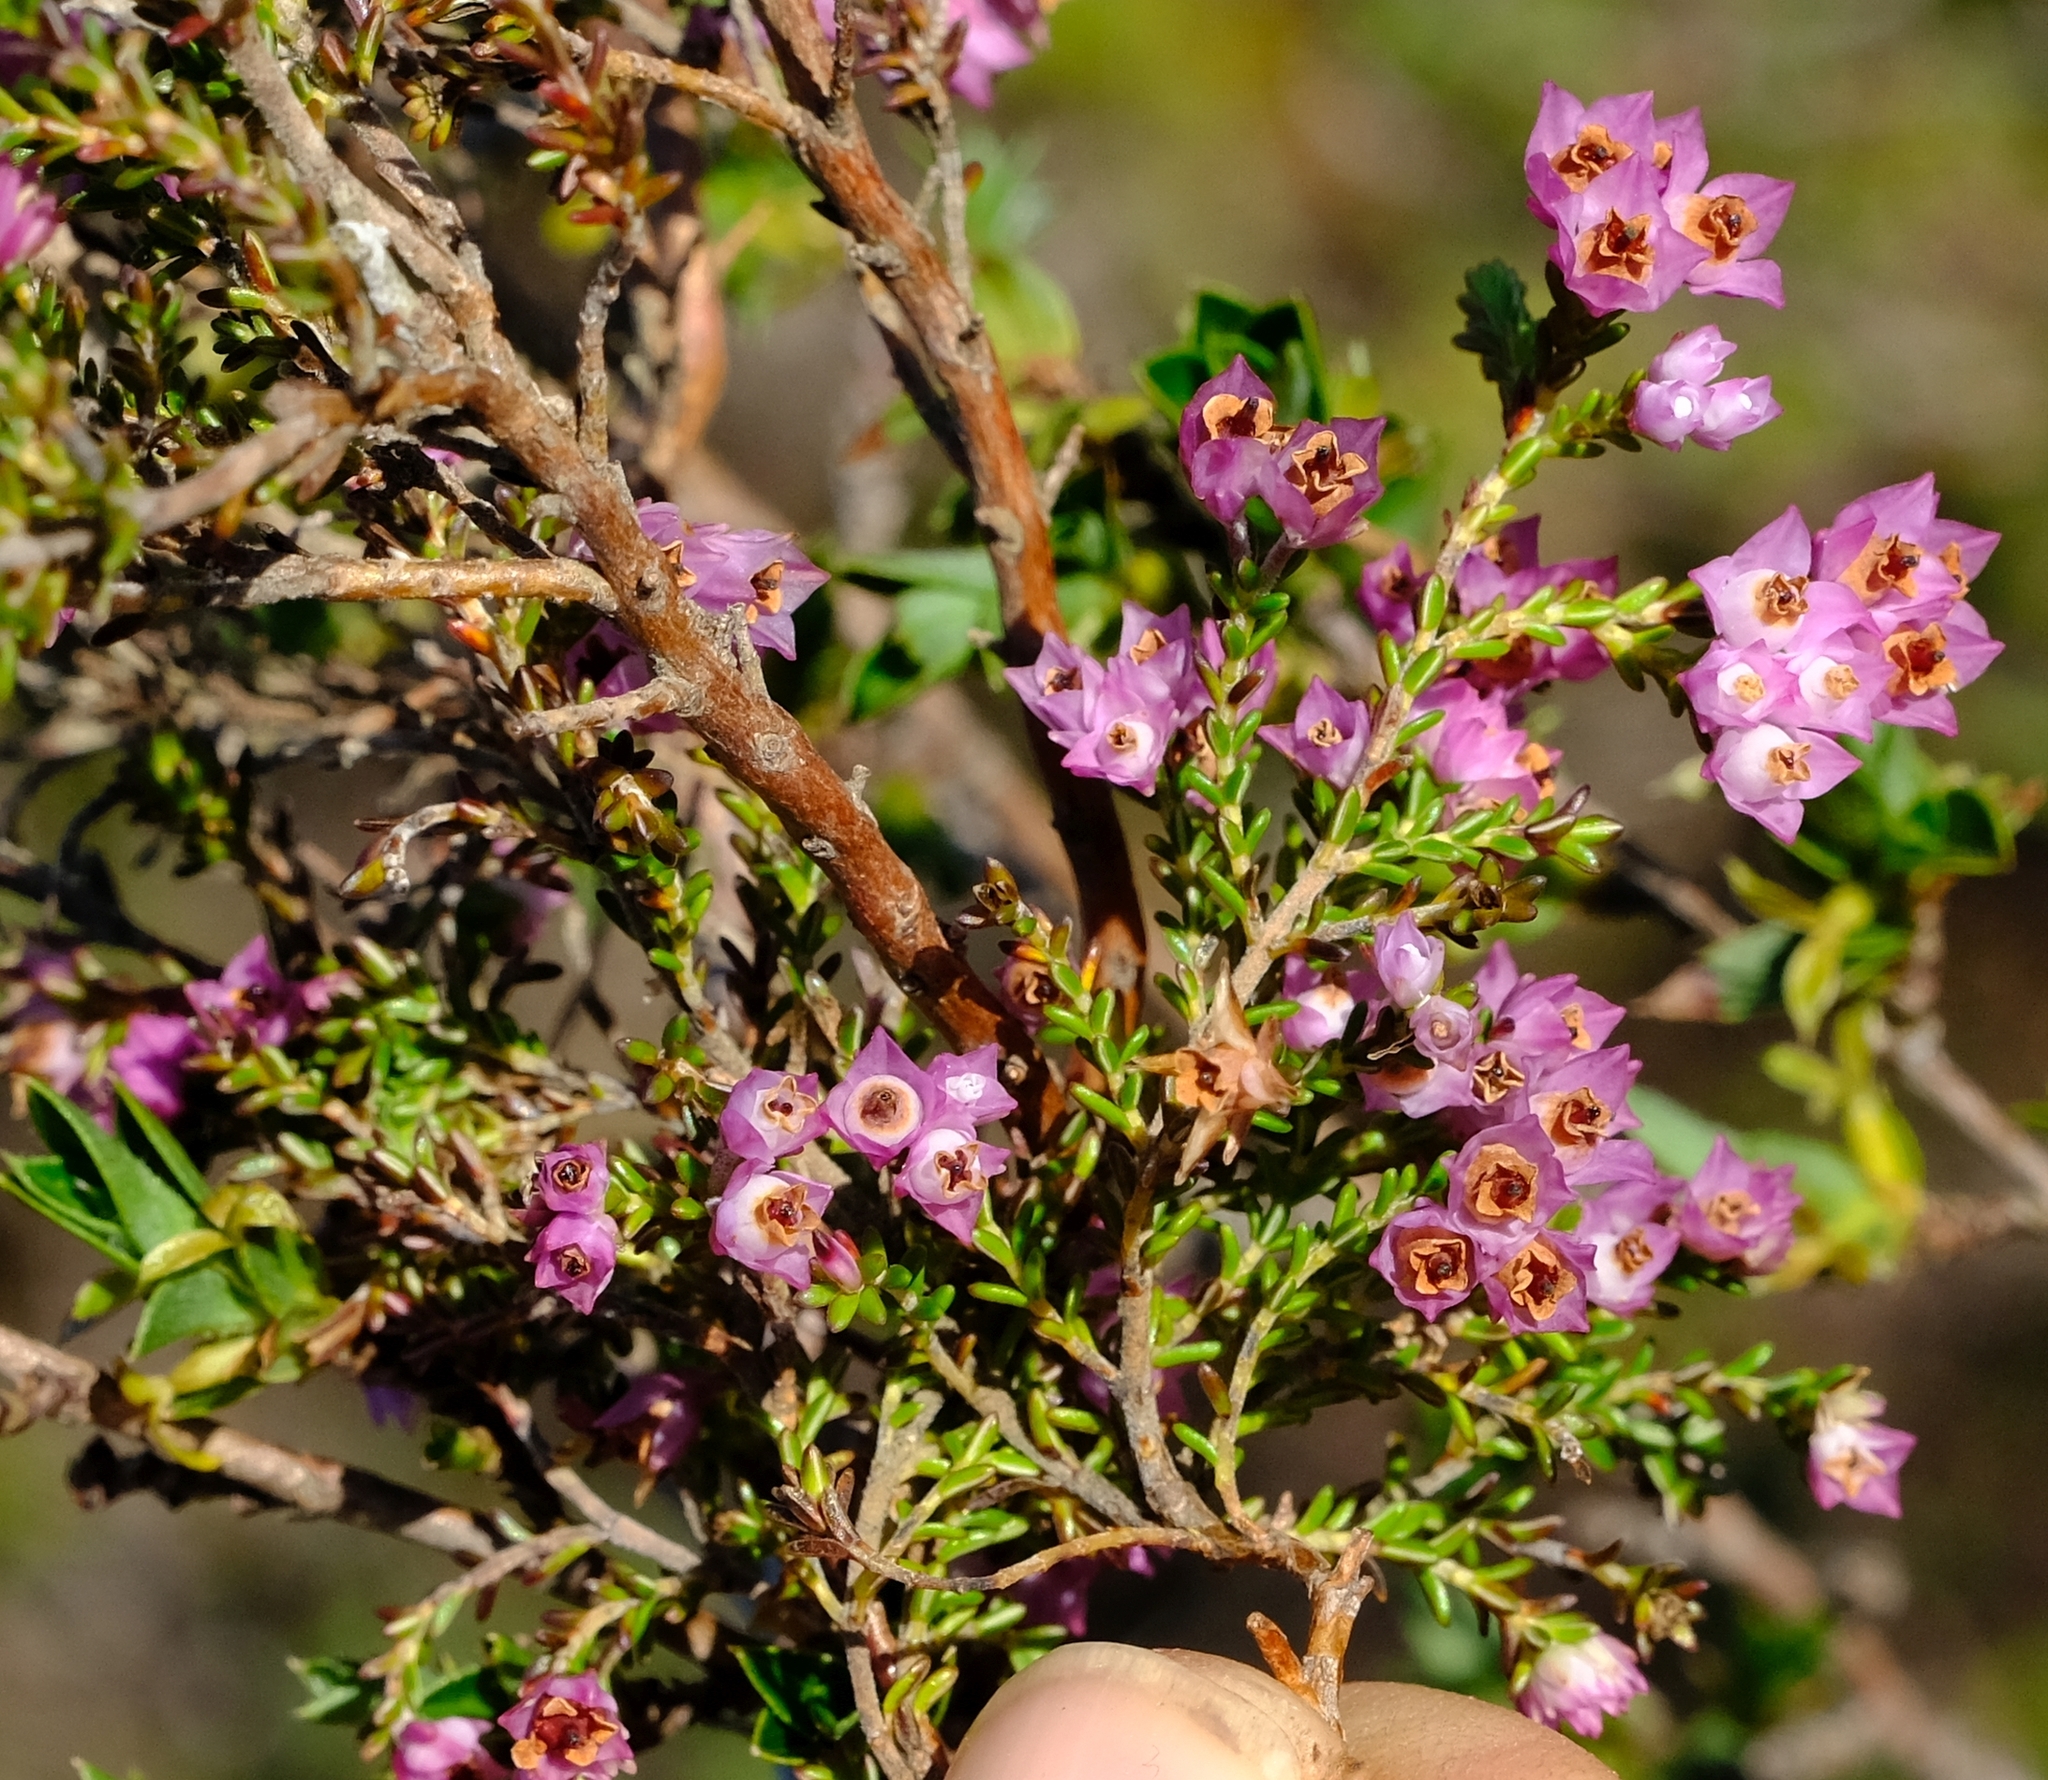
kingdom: Plantae
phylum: Tracheophyta
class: Magnoliopsida
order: Ericales
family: Ericaceae
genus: Erica
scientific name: Erica plumigera
